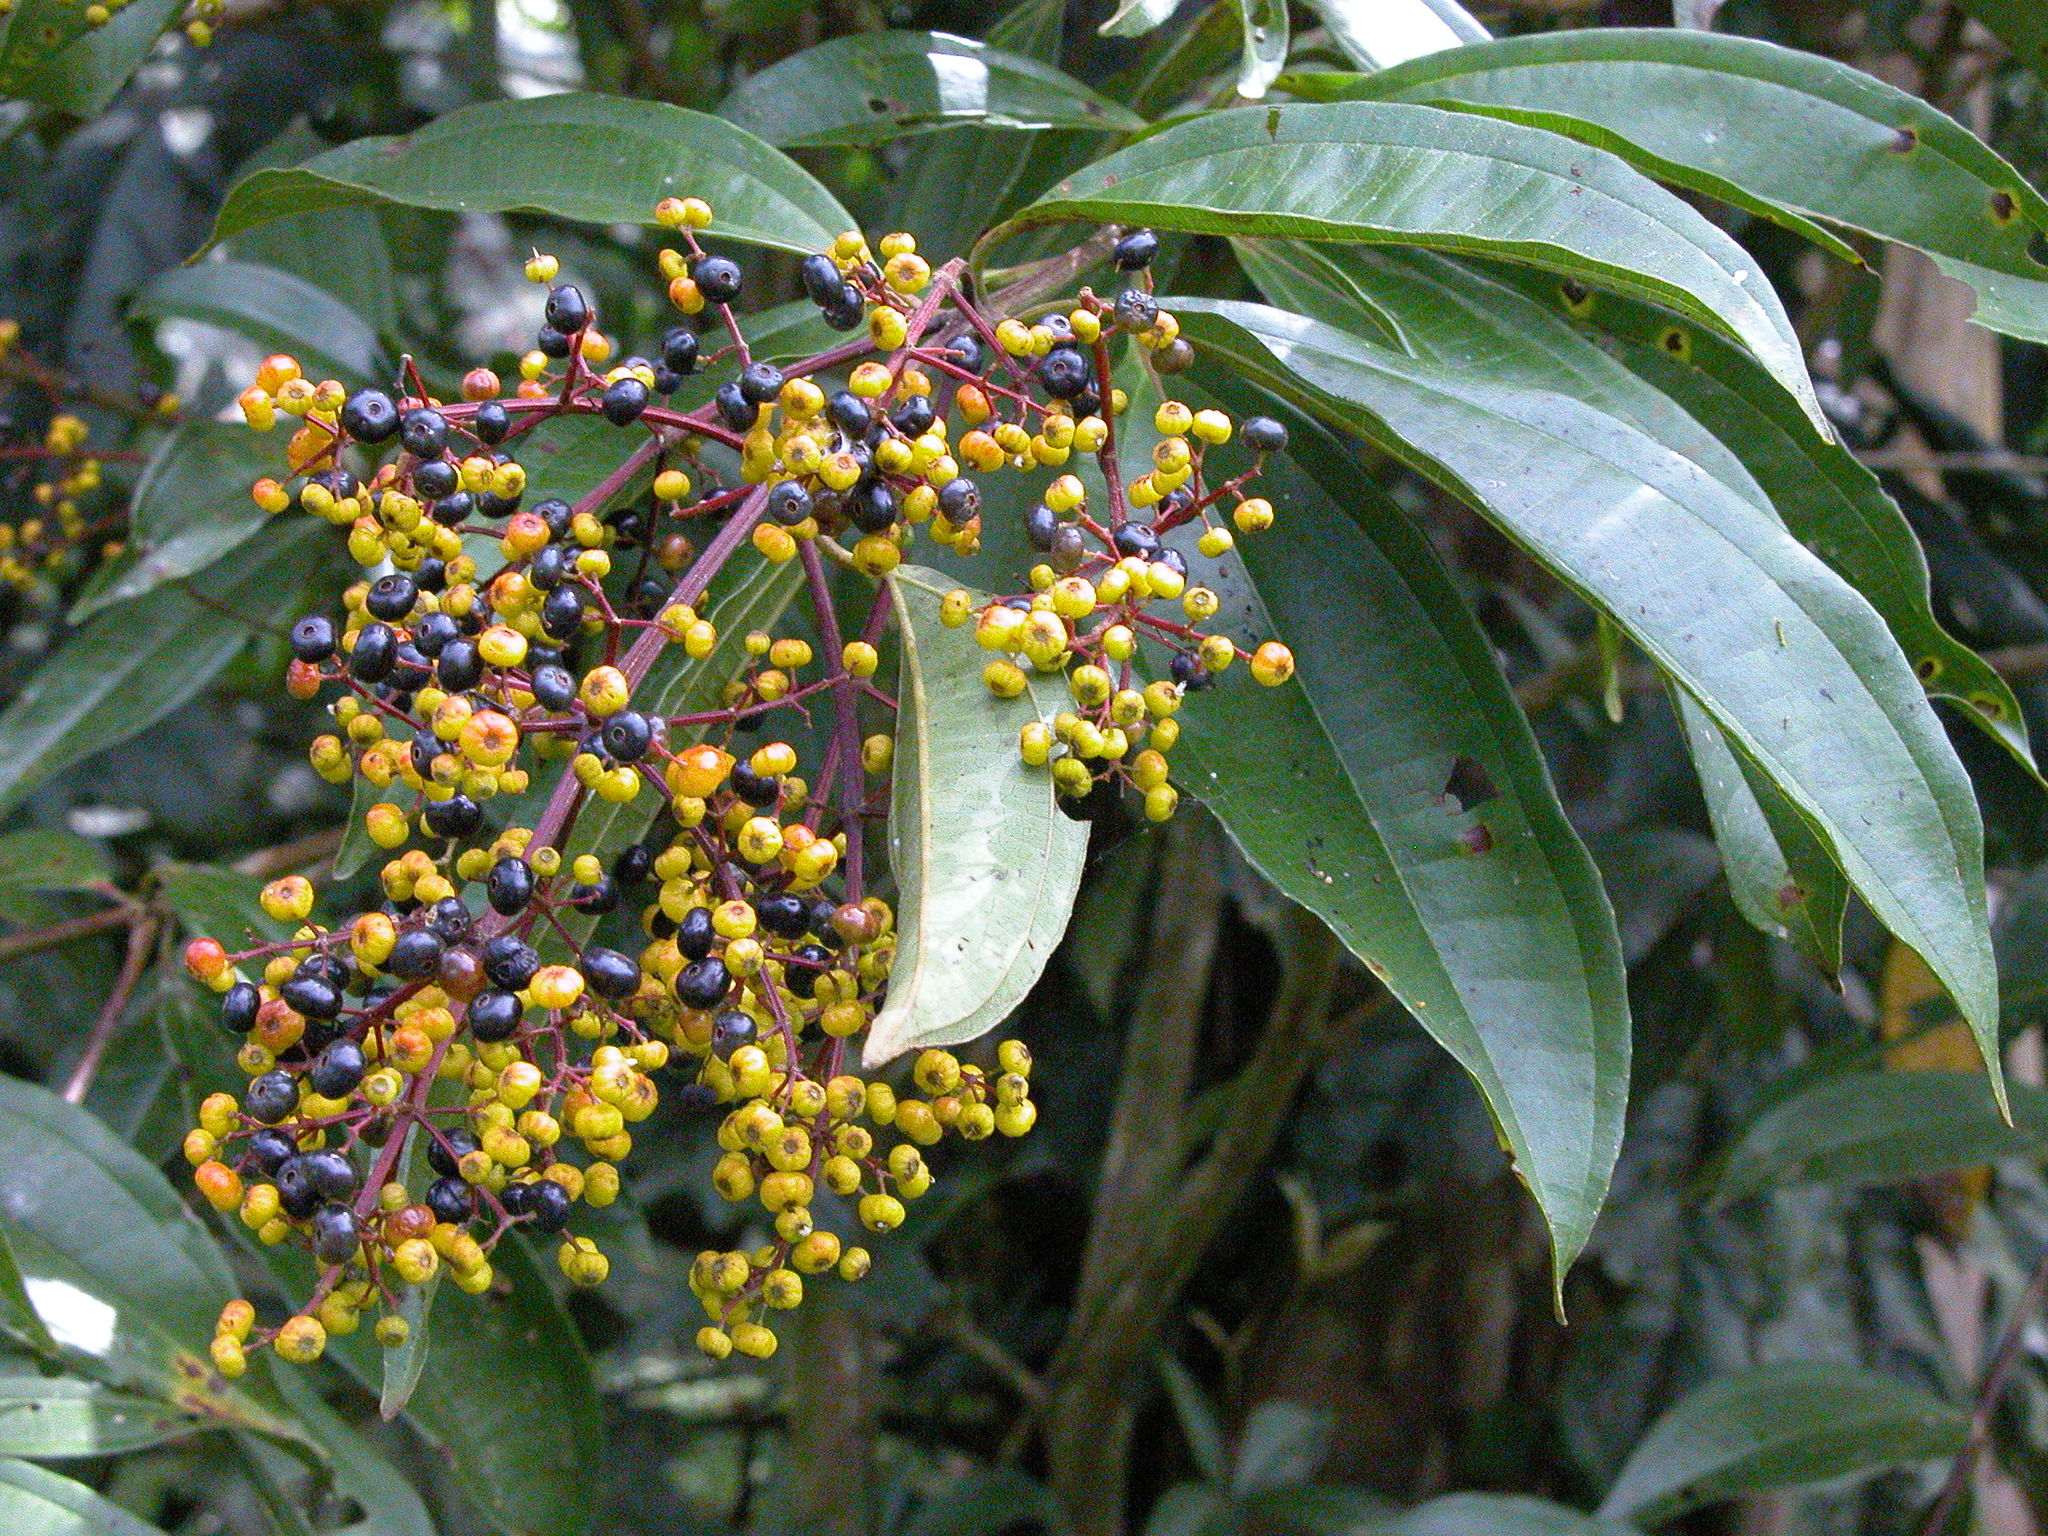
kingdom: Plantae
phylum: Tracheophyta
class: Magnoliopsida
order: Myrtales
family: Melastomataceae
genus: Miconia
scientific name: Miconia longifolia
